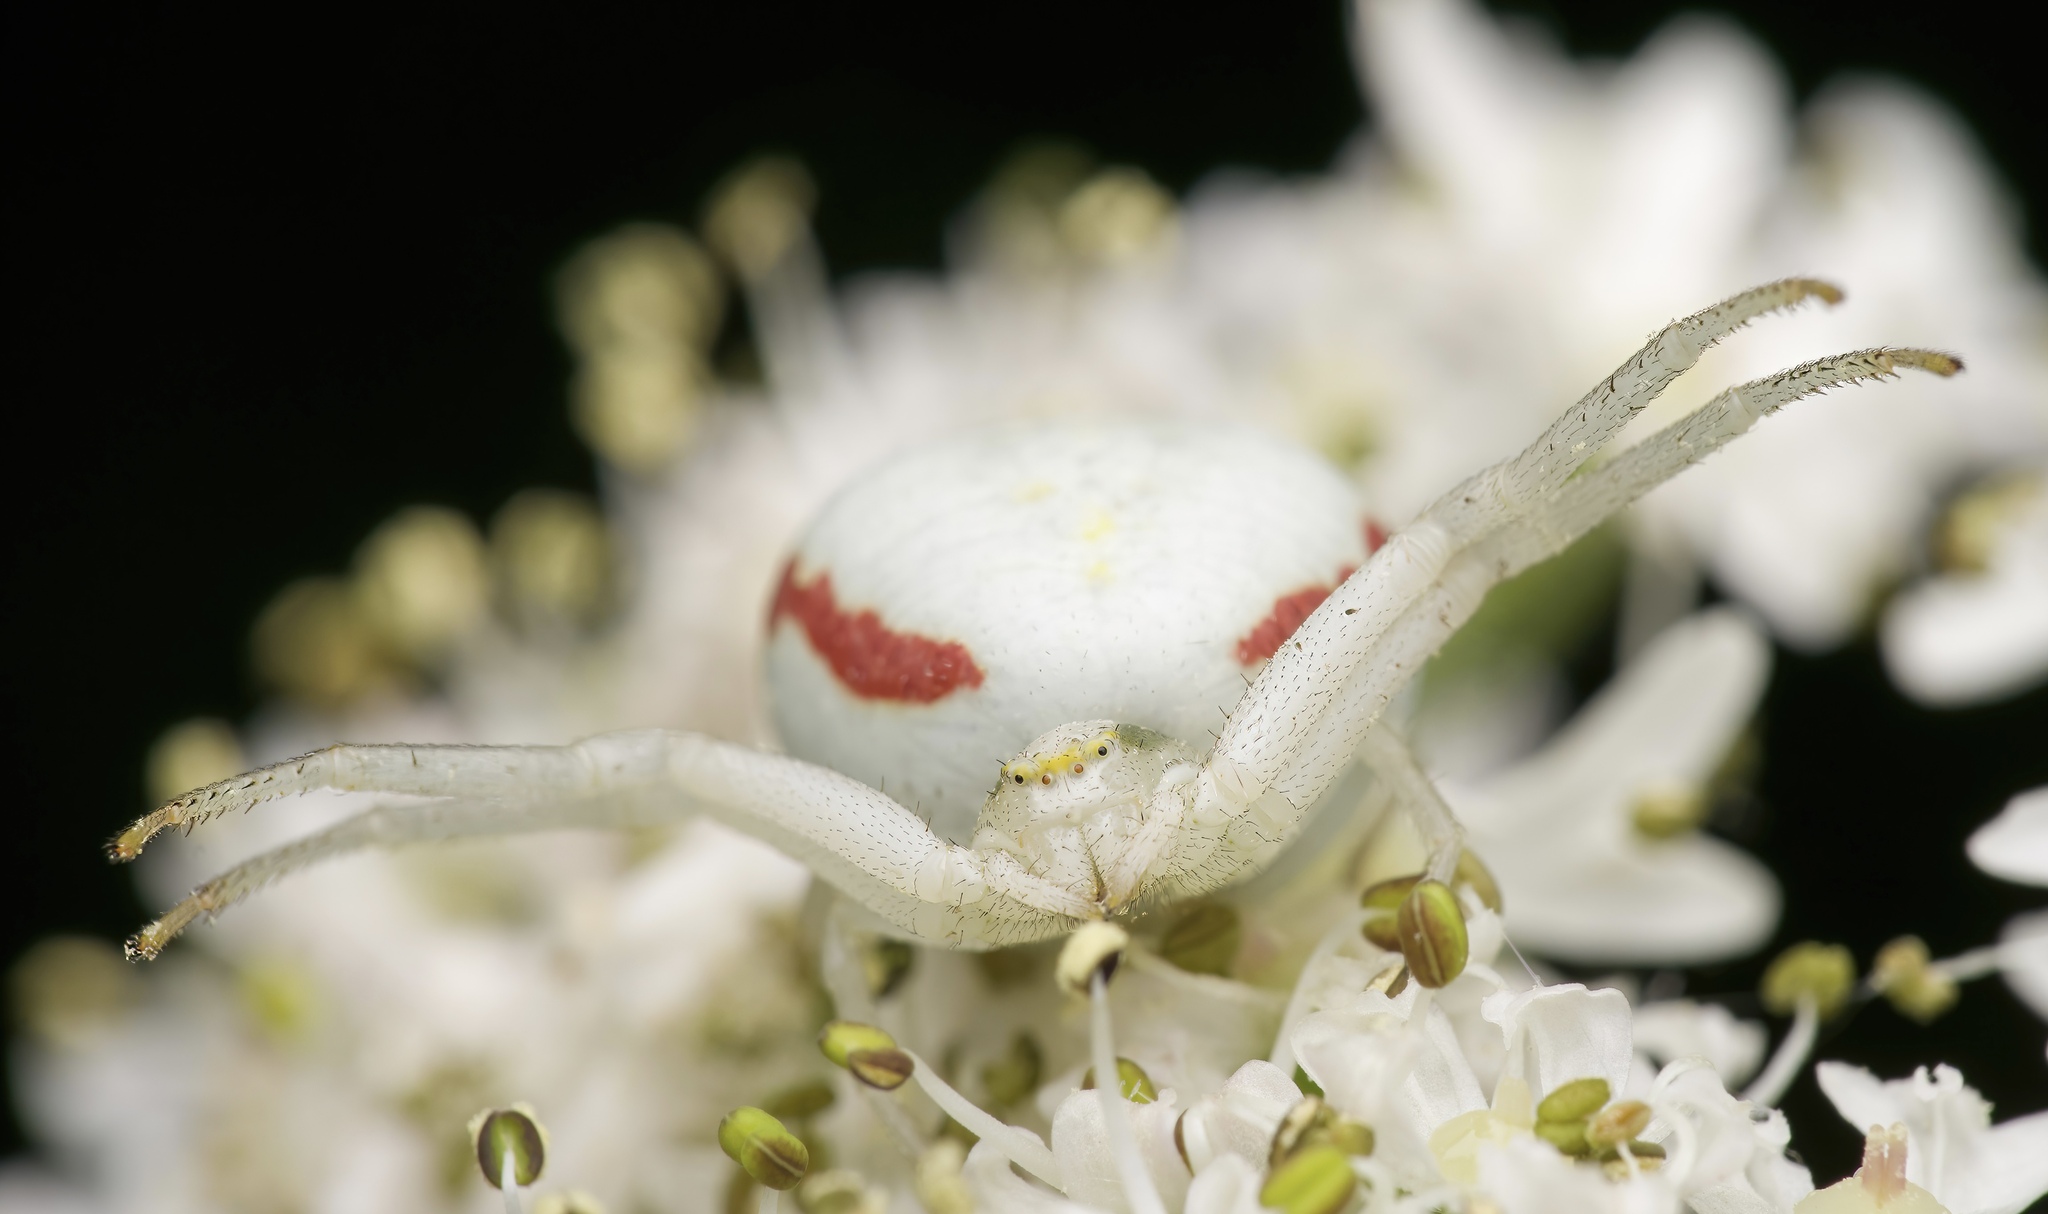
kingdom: Animalia
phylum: Arthropoda
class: Arachnida
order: Araneae
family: Thomisidae
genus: Misumena
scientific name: Misumena vatia
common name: Goldenrod crab spider
